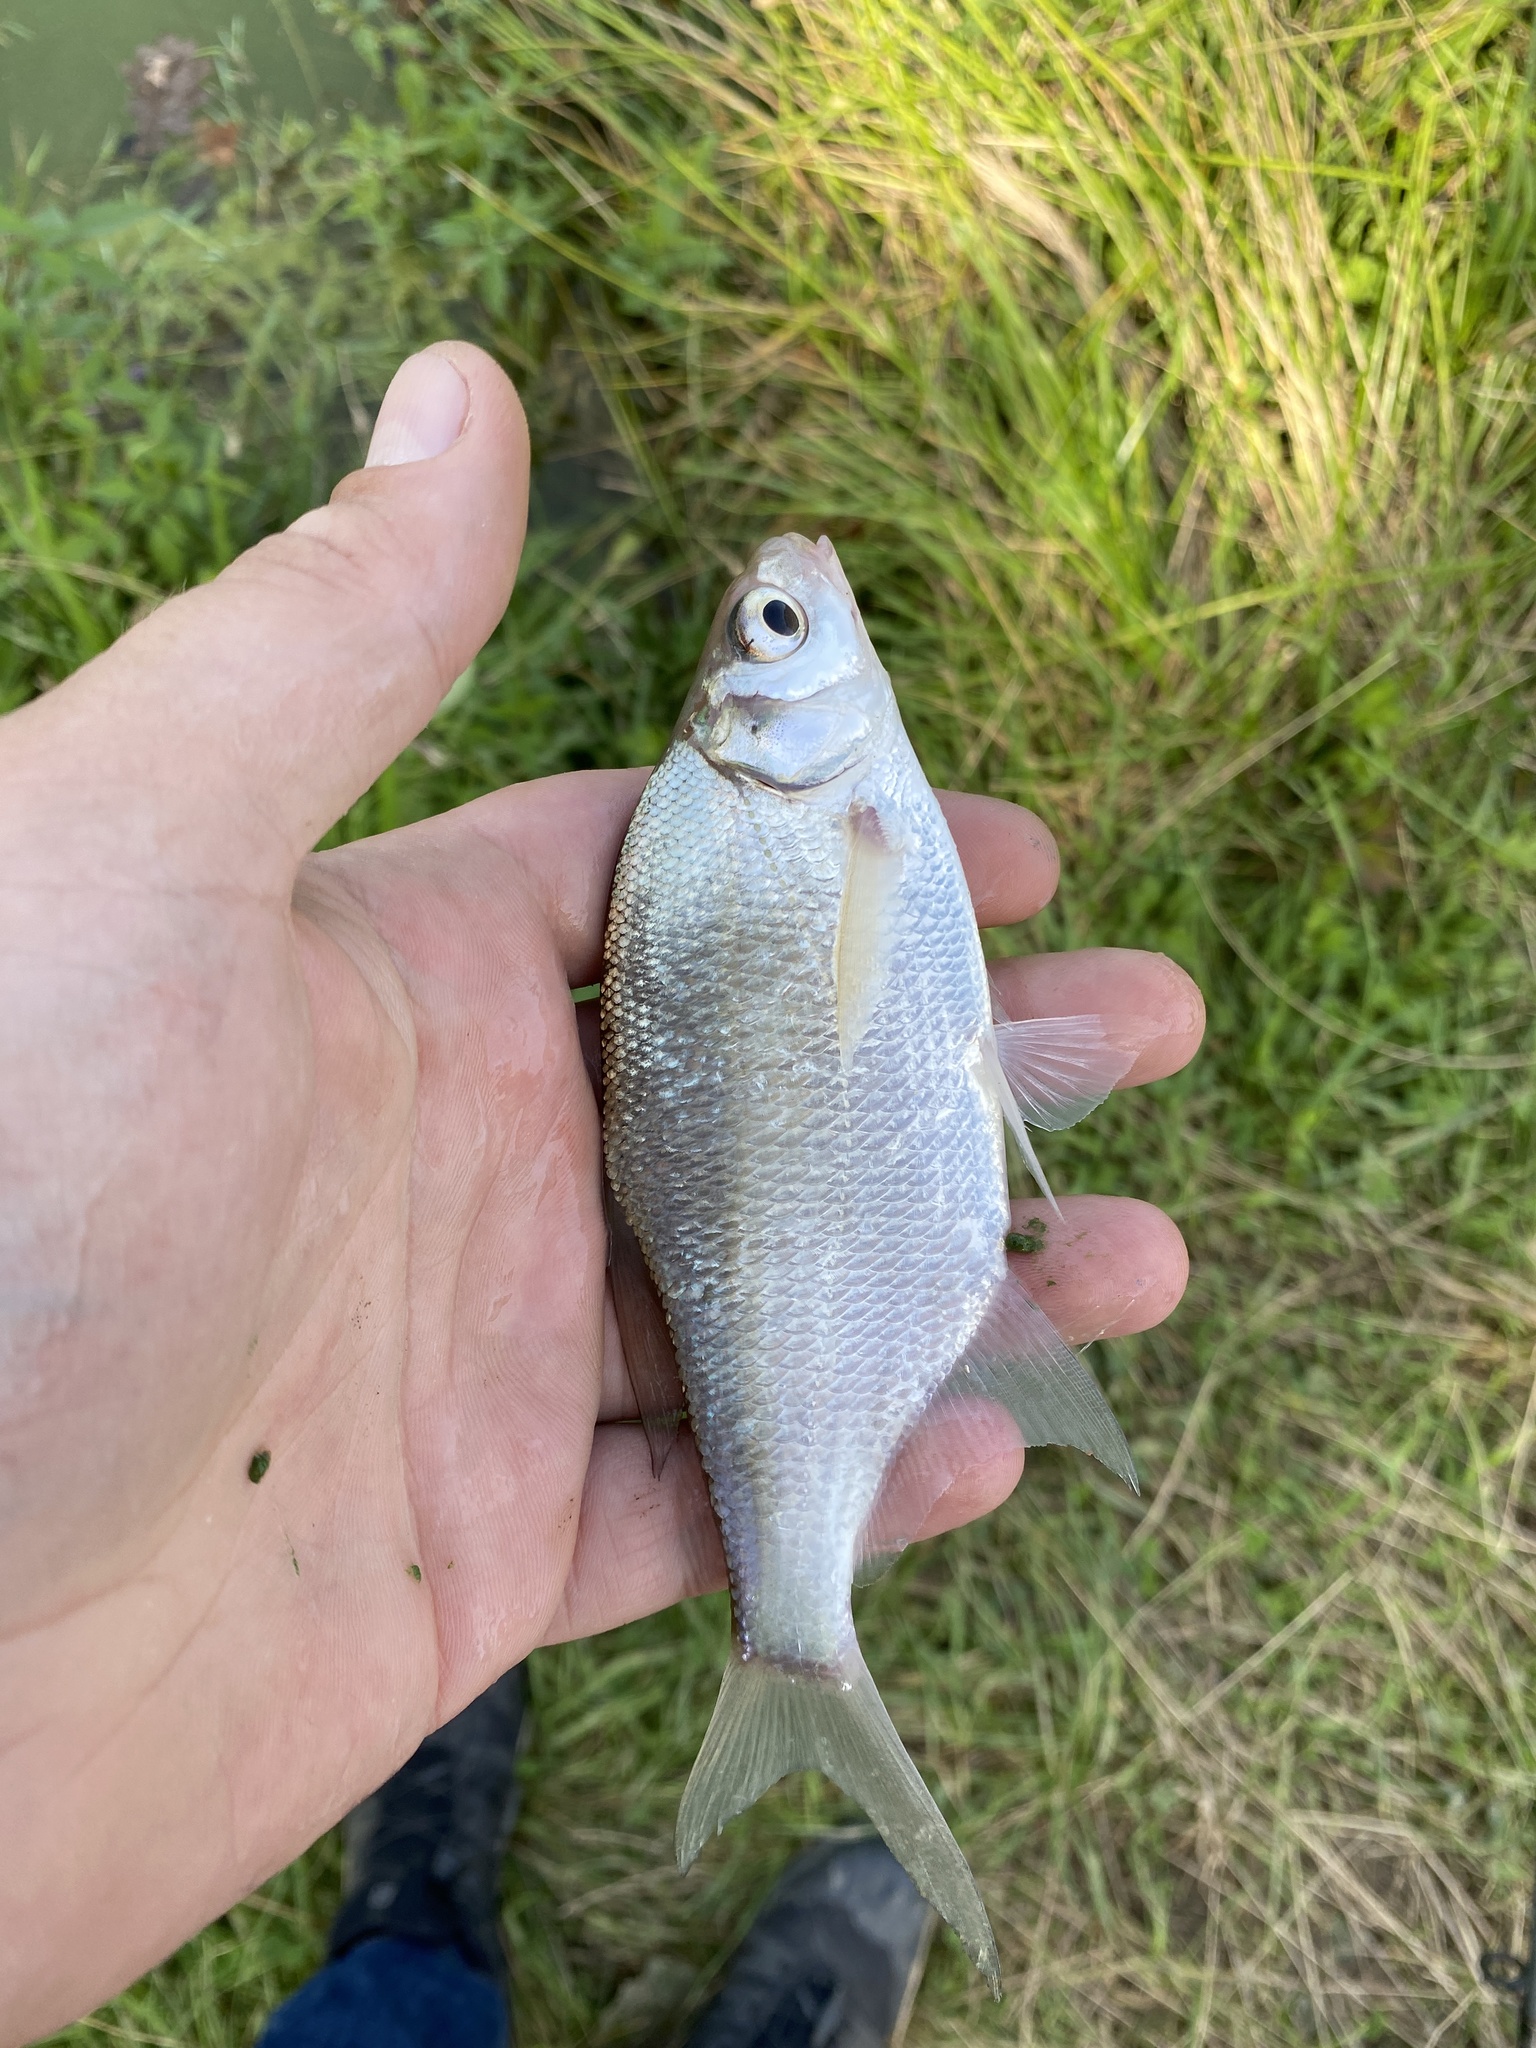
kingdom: Animalia
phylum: Chordata
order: Cypriniformes
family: Cyprinidae
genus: Abramis
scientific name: Abramis brama
